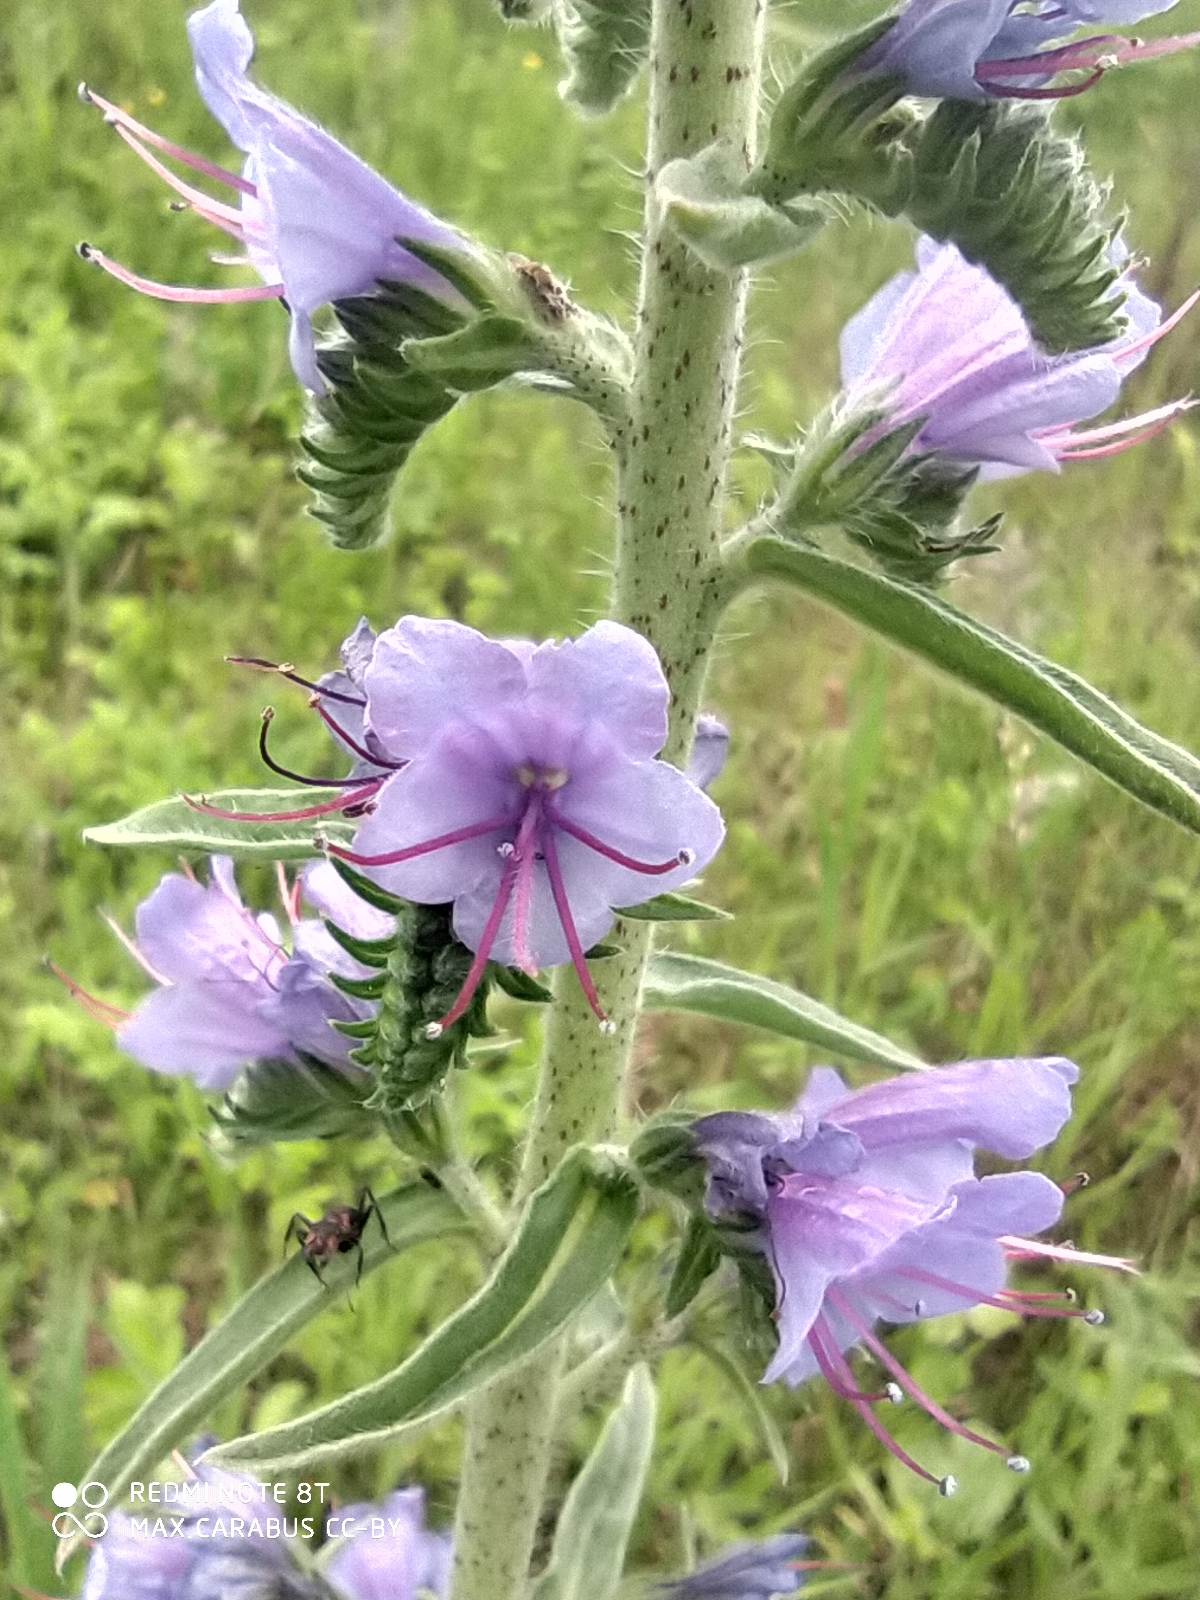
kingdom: Plantae
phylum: Tracheophyta
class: Magnoliopsida
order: Boraginales
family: Boraginaceae
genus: Echium
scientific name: Echium vulgare
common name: Common viper's bugloss
